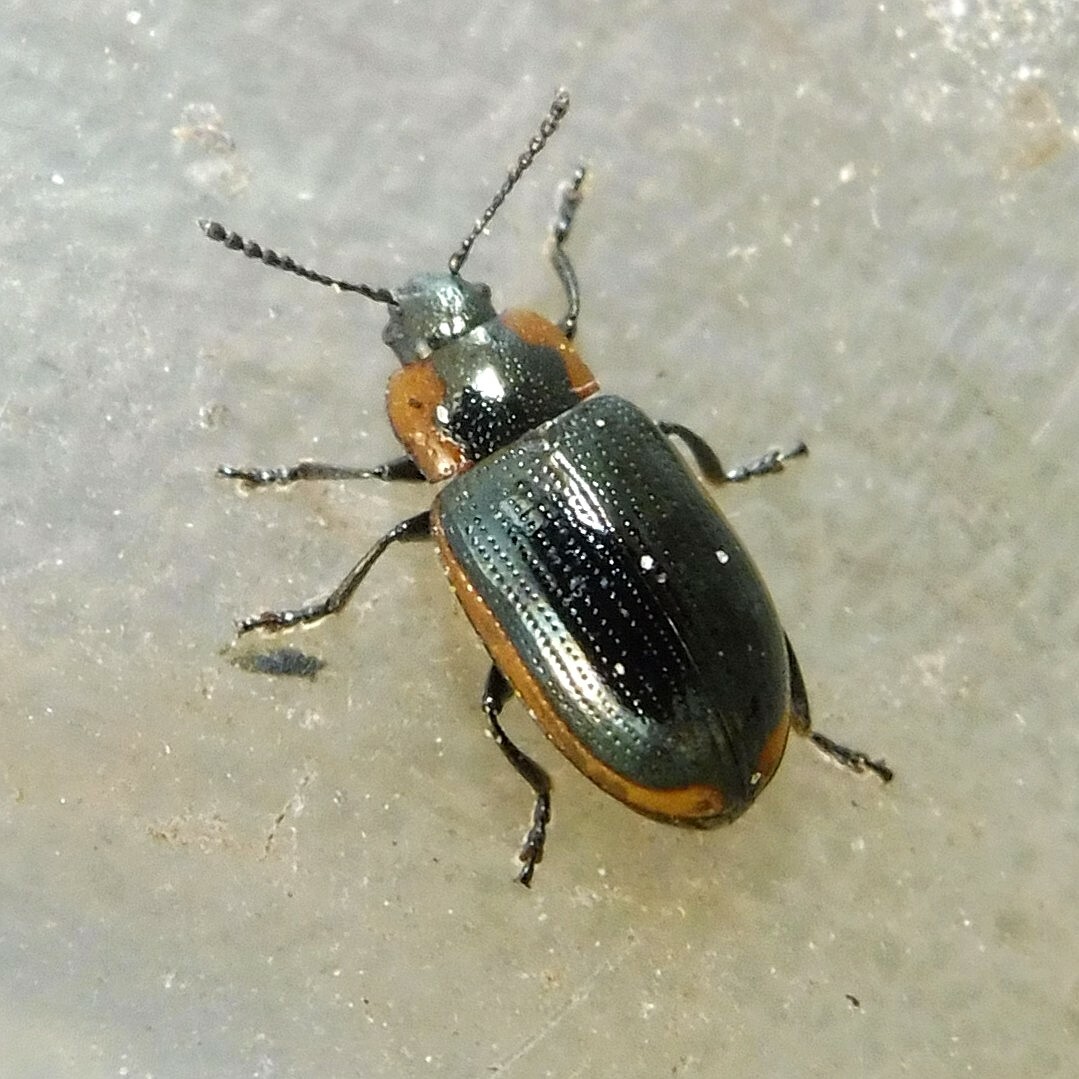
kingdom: Animalia
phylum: Arthropoda
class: Insecta
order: Coleoptera
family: Chrysomelidae
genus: Prasocuris
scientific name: Prasocuris marginella
